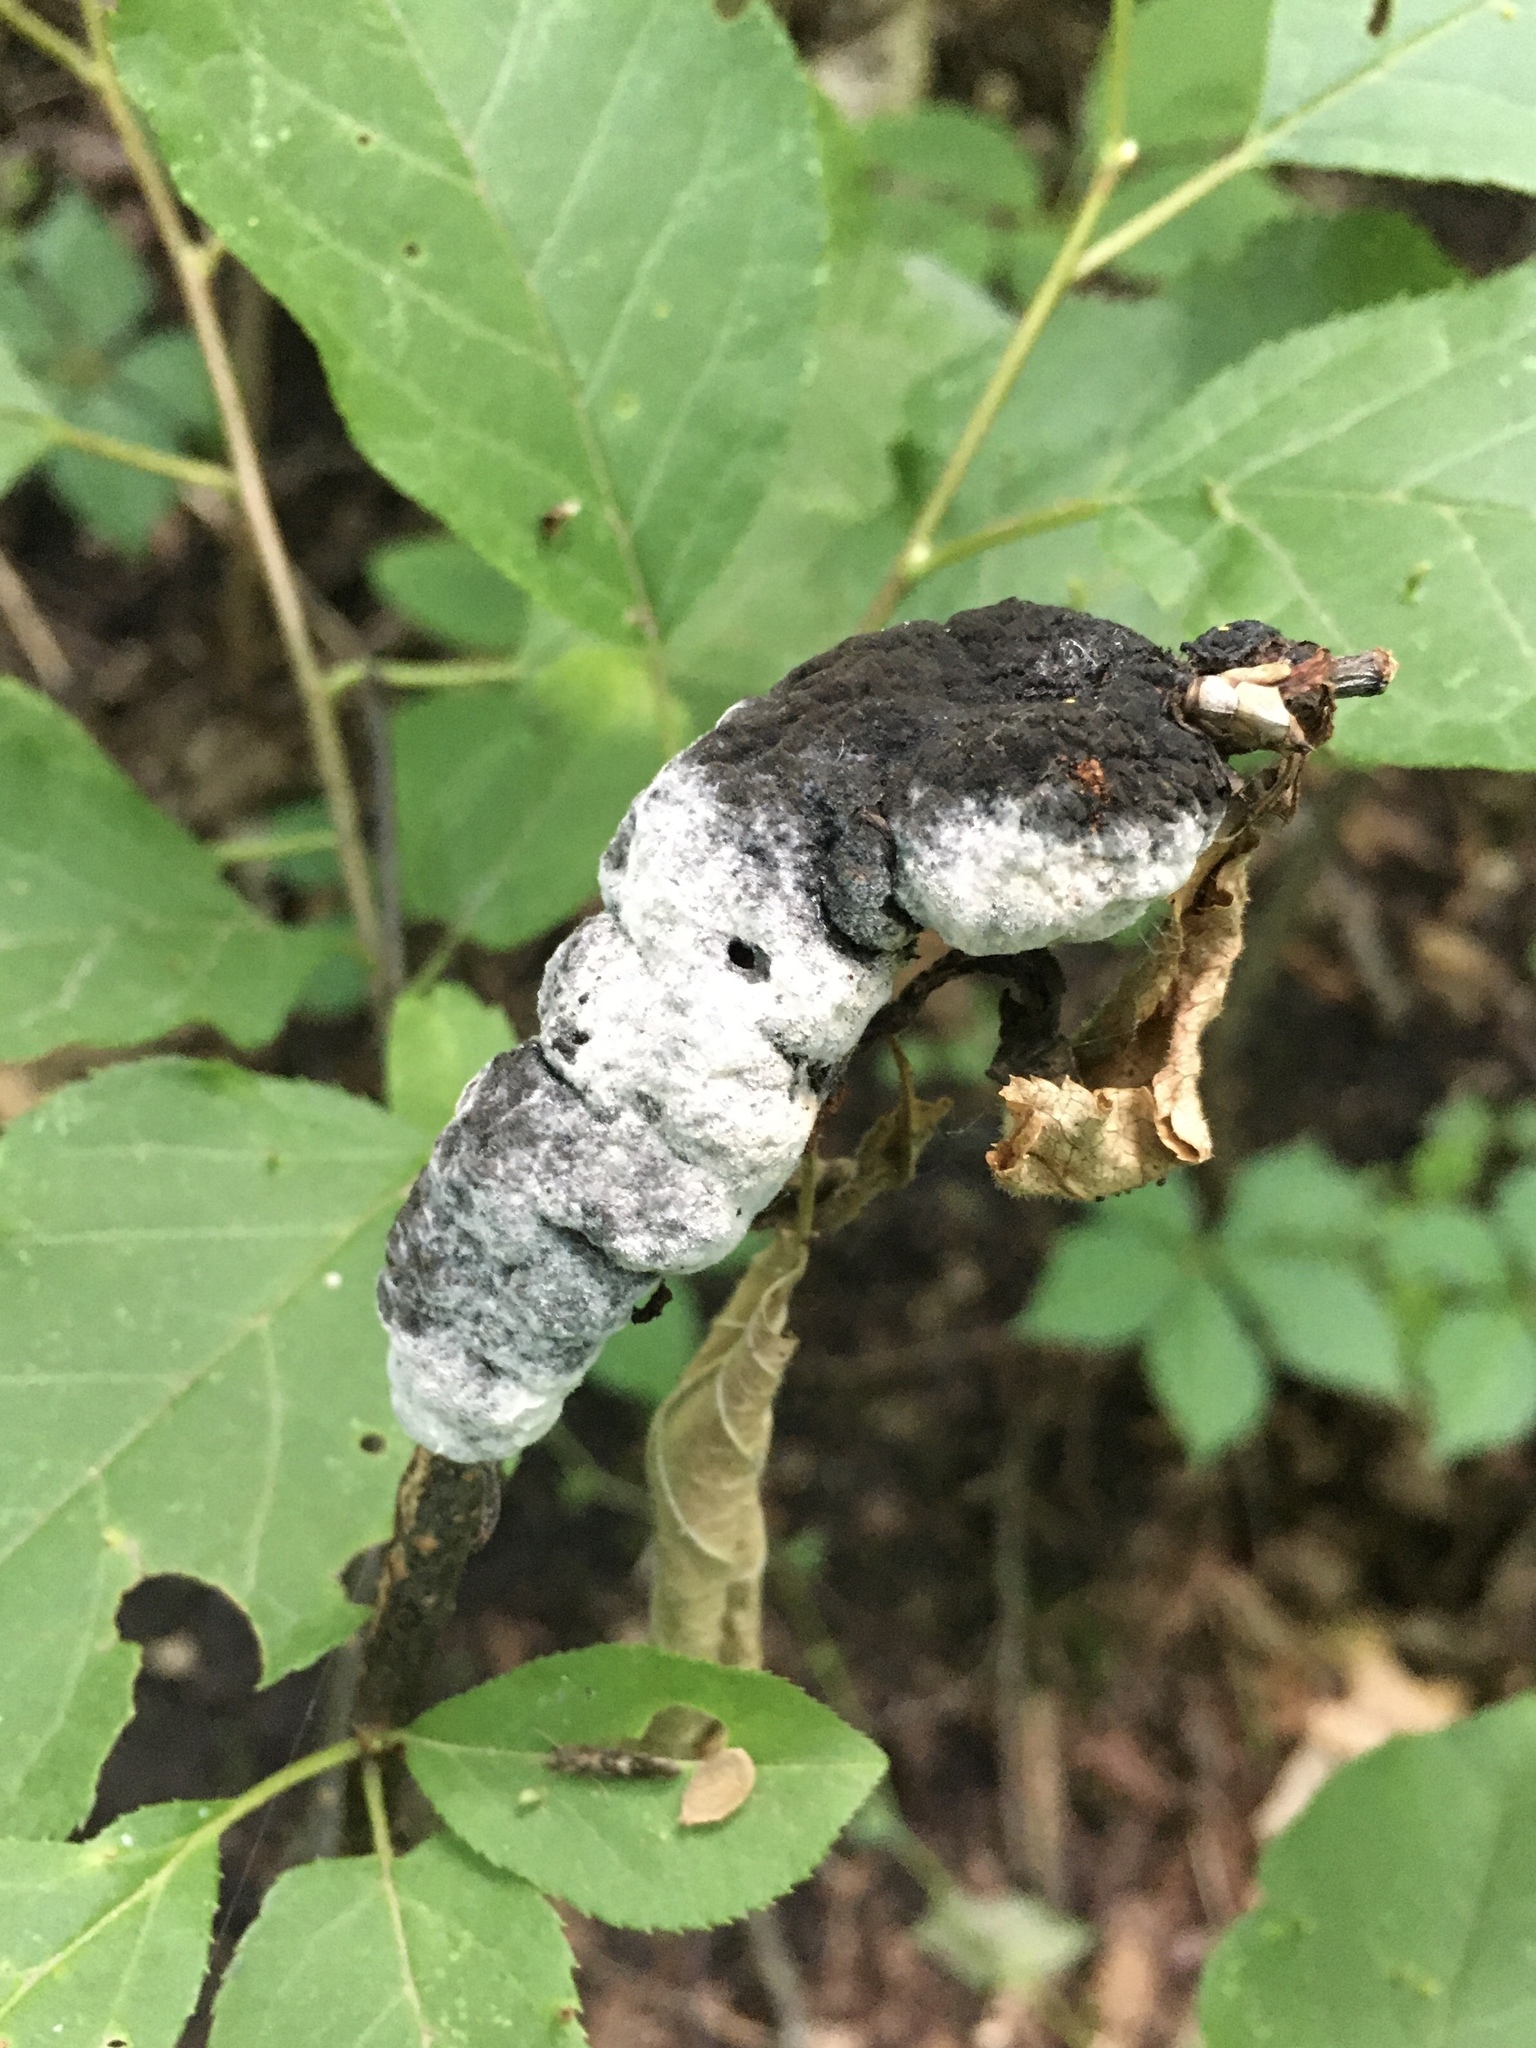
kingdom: Fungi
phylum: Ascomycota
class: Sordariomycetes
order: Hypocreales
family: Myrotheciomycetaceae
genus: Trichothecium
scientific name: Trichothecium roseum
